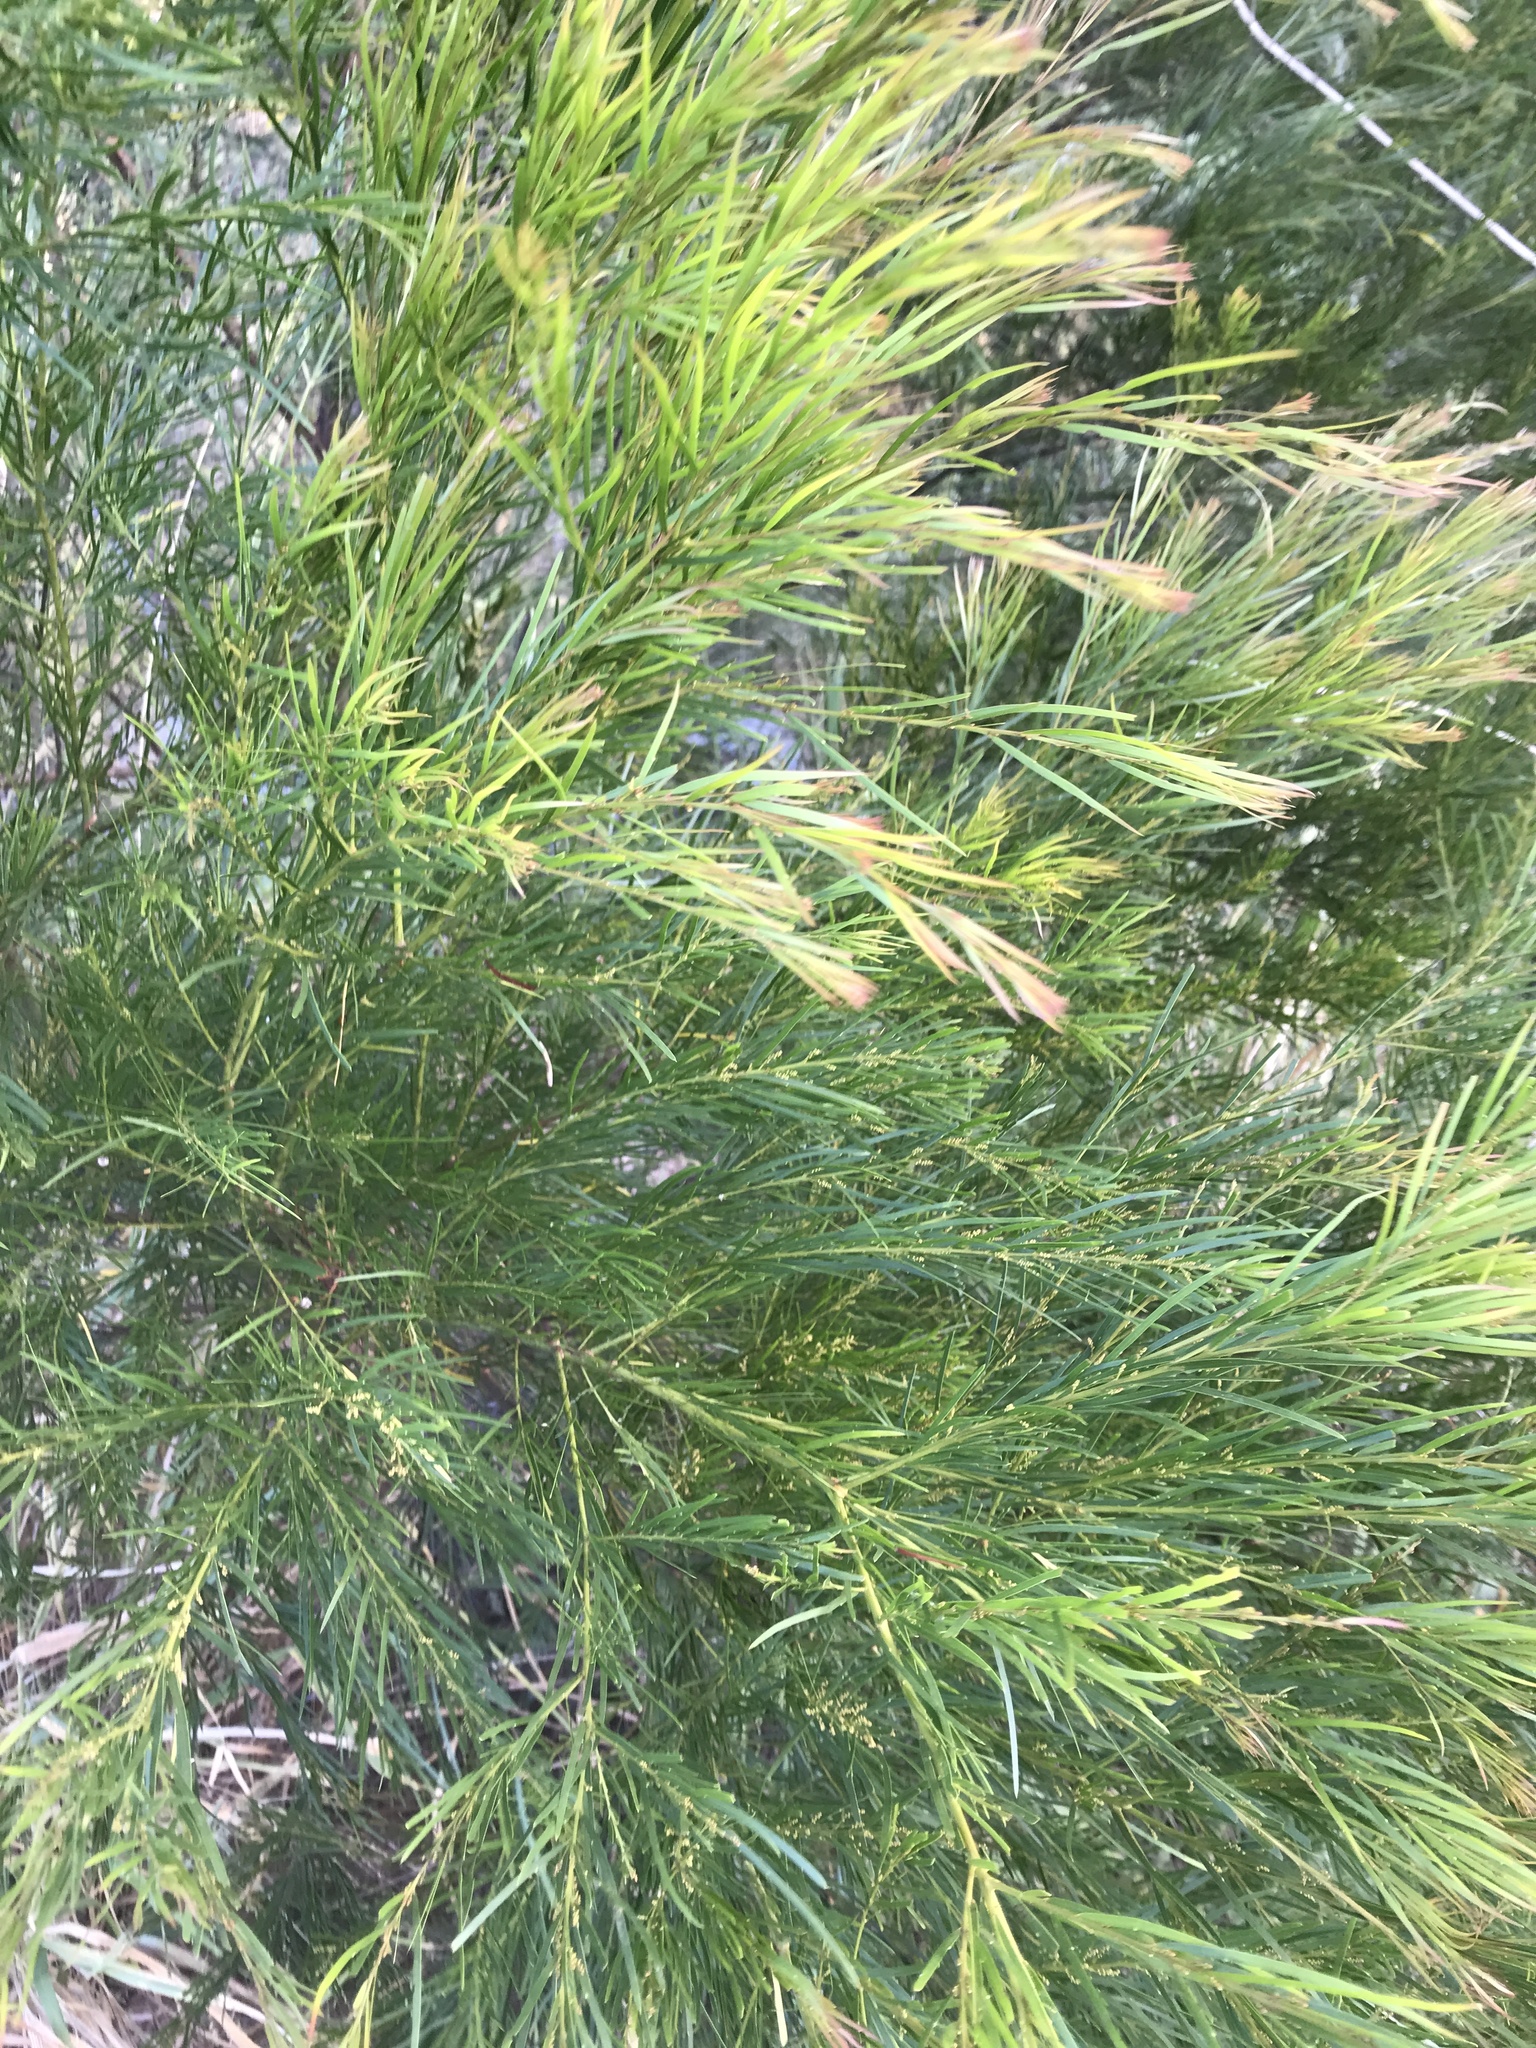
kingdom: Plantae
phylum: Tracheophyta
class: Magnoliopsida
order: Fabales
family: Fabaceae
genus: Acacia
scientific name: Acacia fimbriata
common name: Brisbane golden wattle
